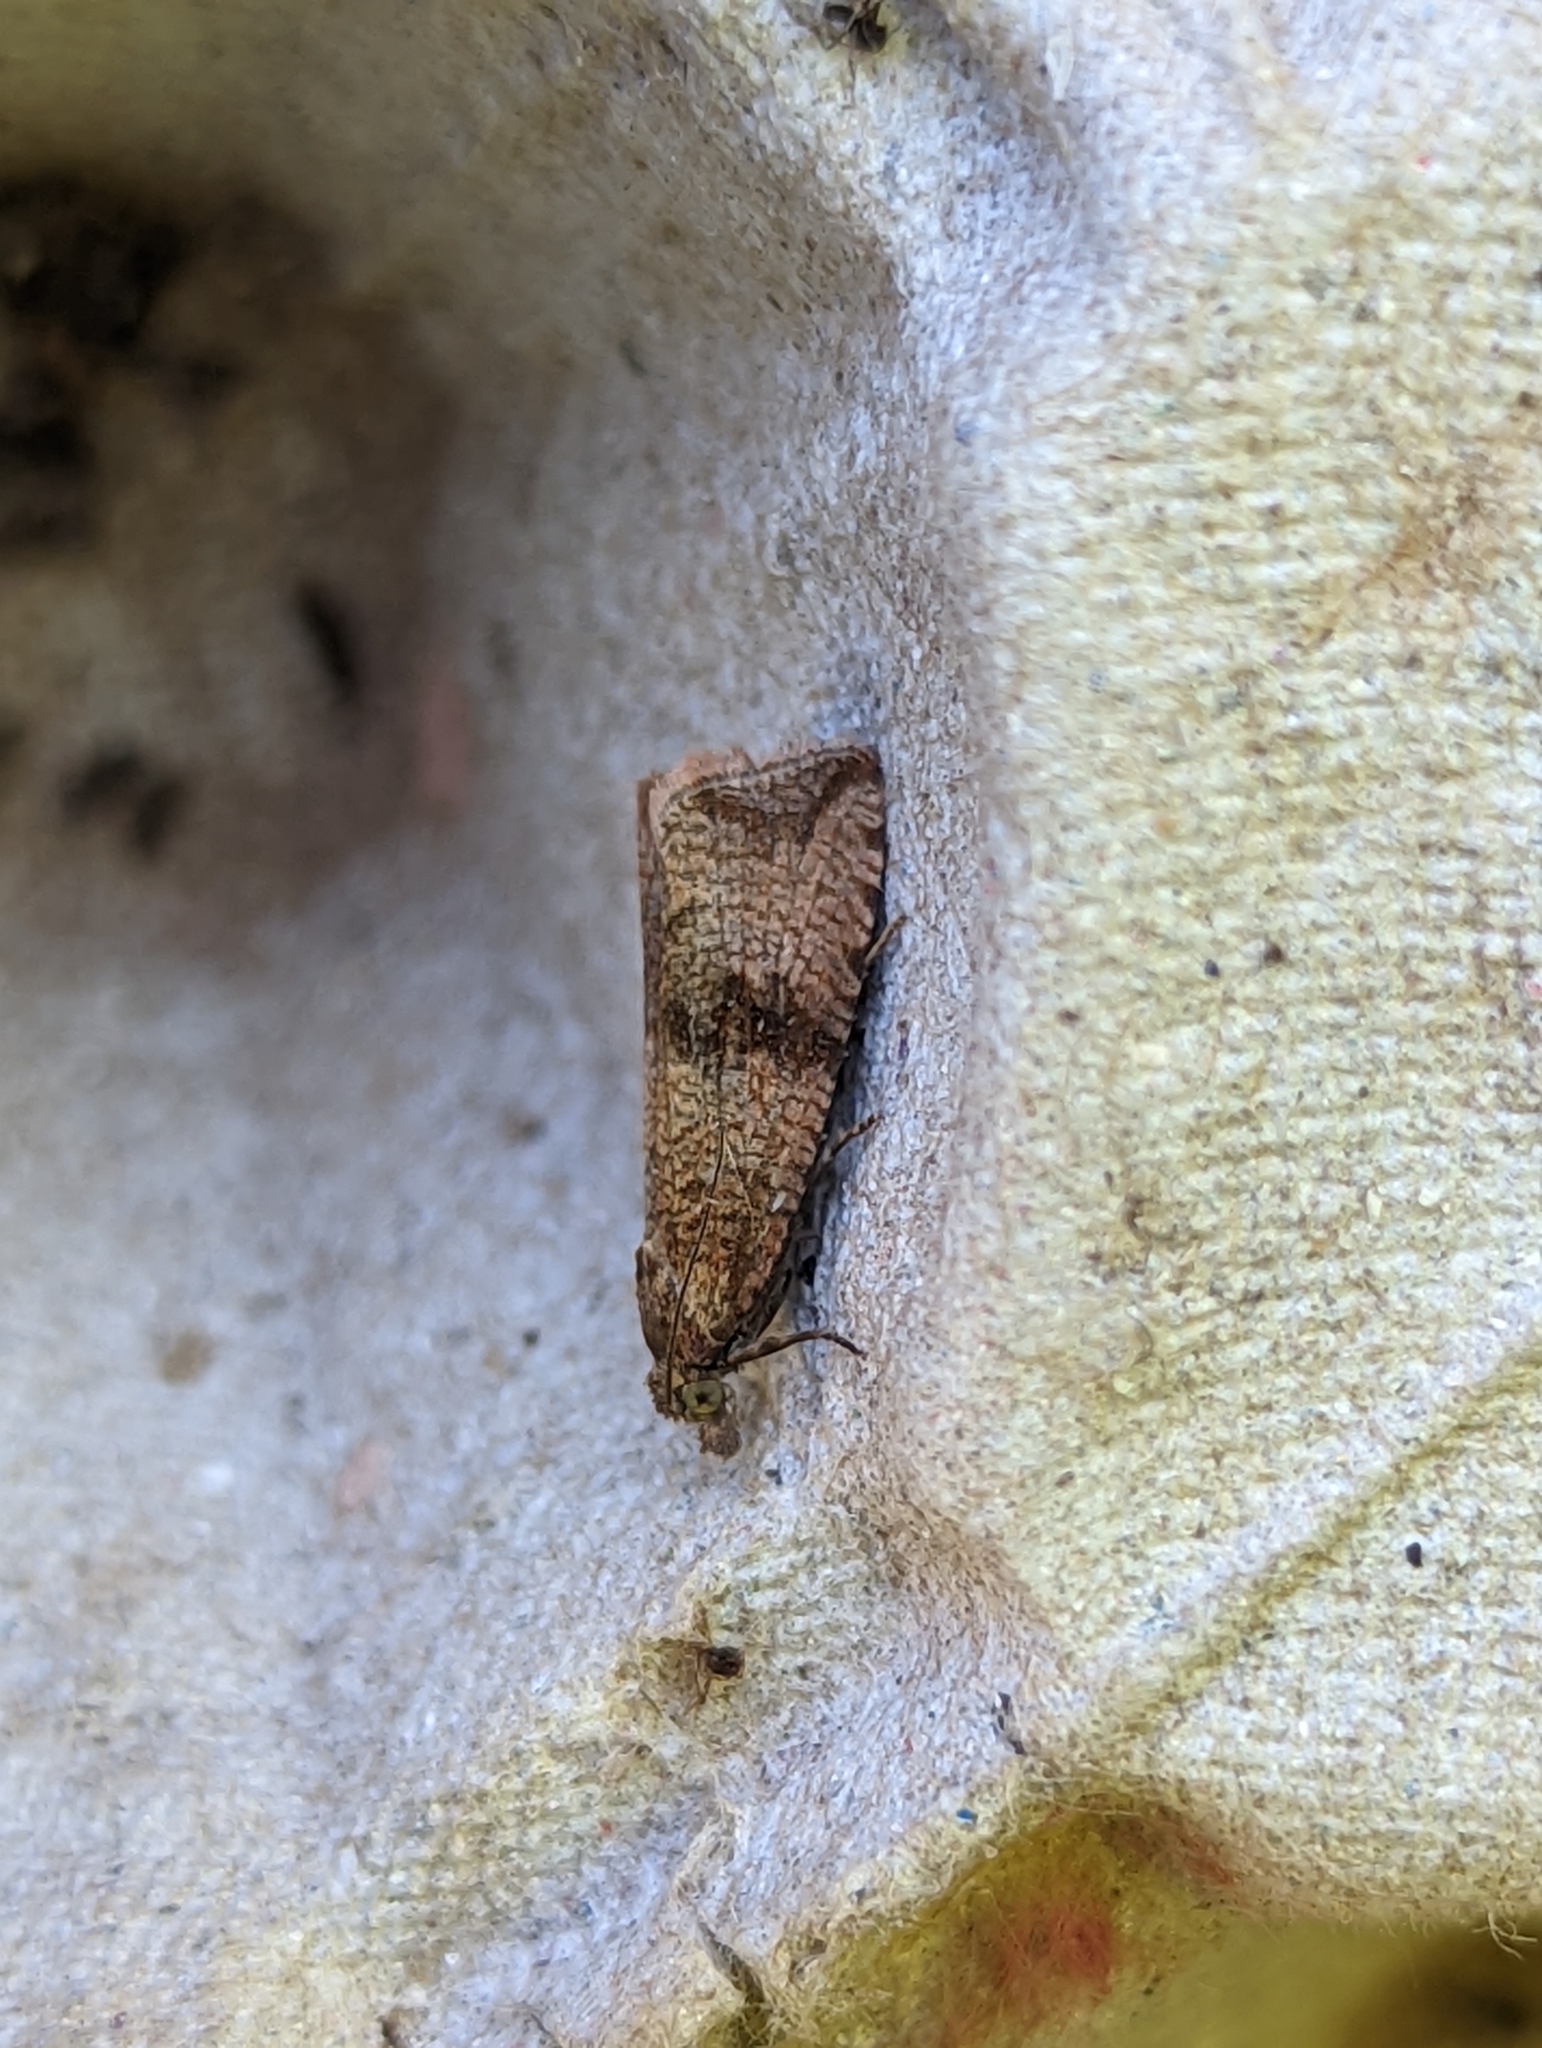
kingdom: Animalia
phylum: Arthropoda
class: Insecta
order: Lepidoptera
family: Tortricidae
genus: Celypha
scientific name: Celypha striana
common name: Barred marble
